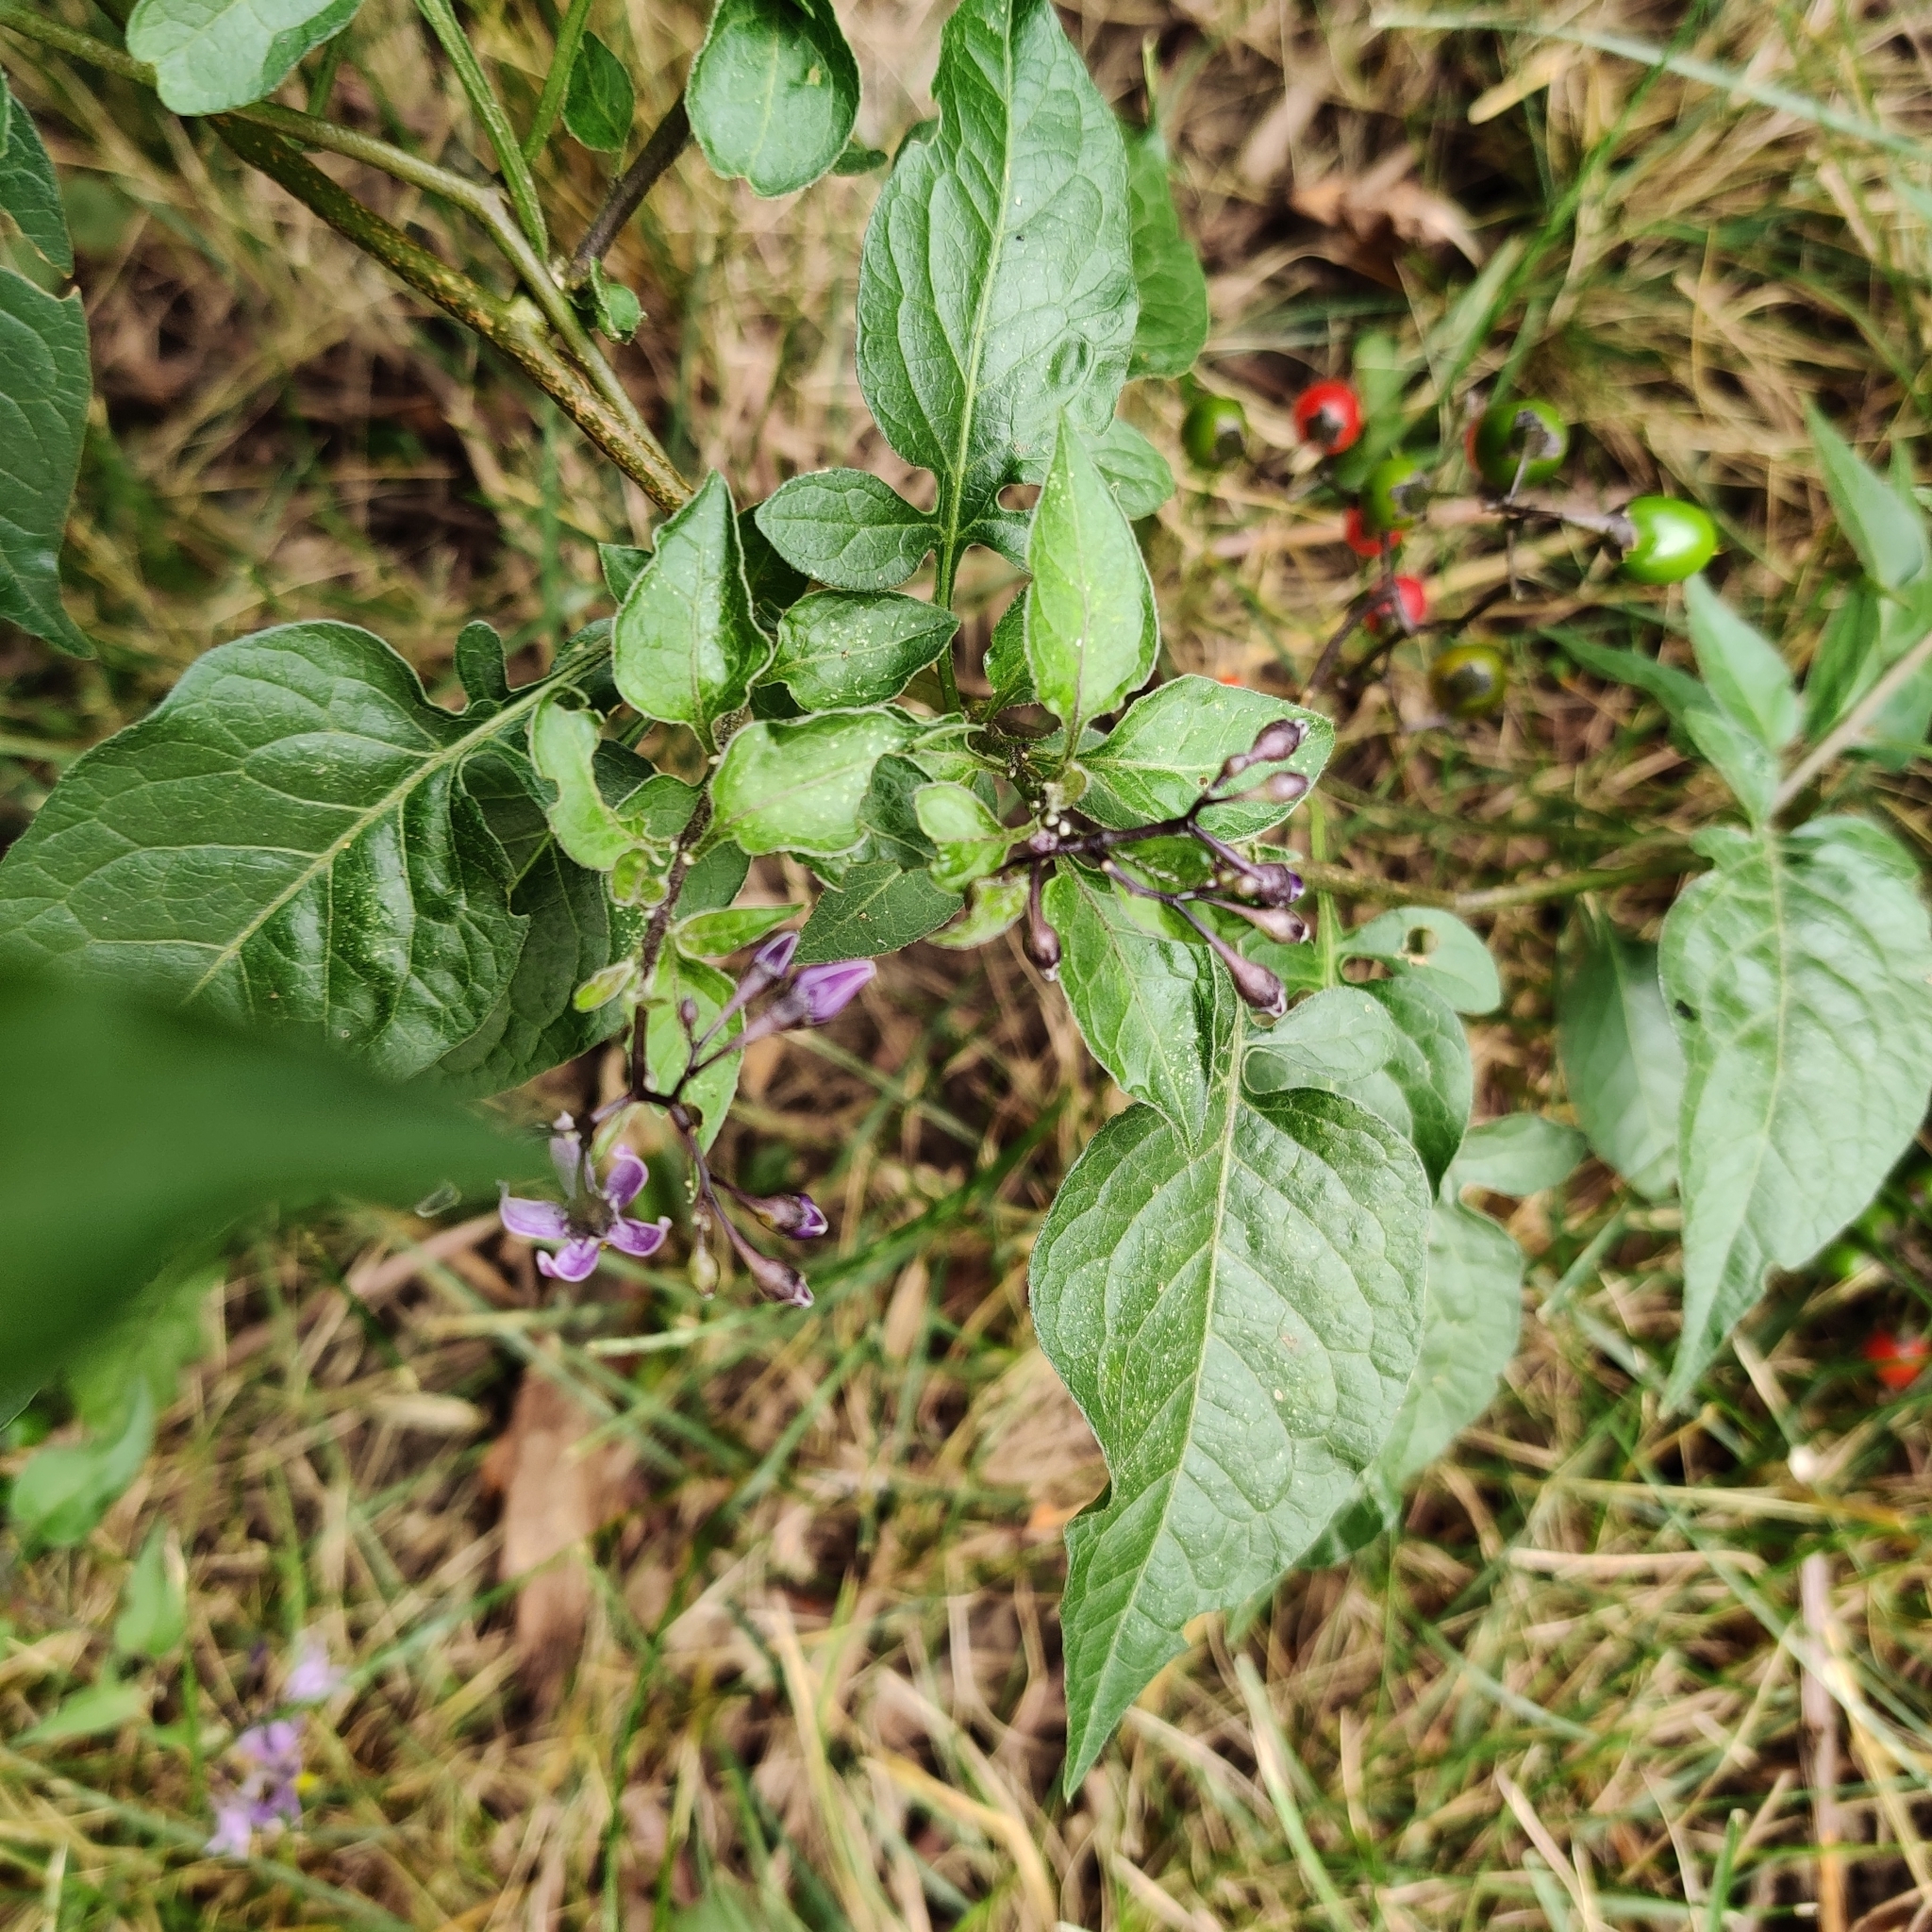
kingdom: Plantae
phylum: Tracheophyta
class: Magnoliopsida
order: Solanales
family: Solanaceae
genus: Solanum
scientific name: Solanum dulcamara
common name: Climbing nightshade
